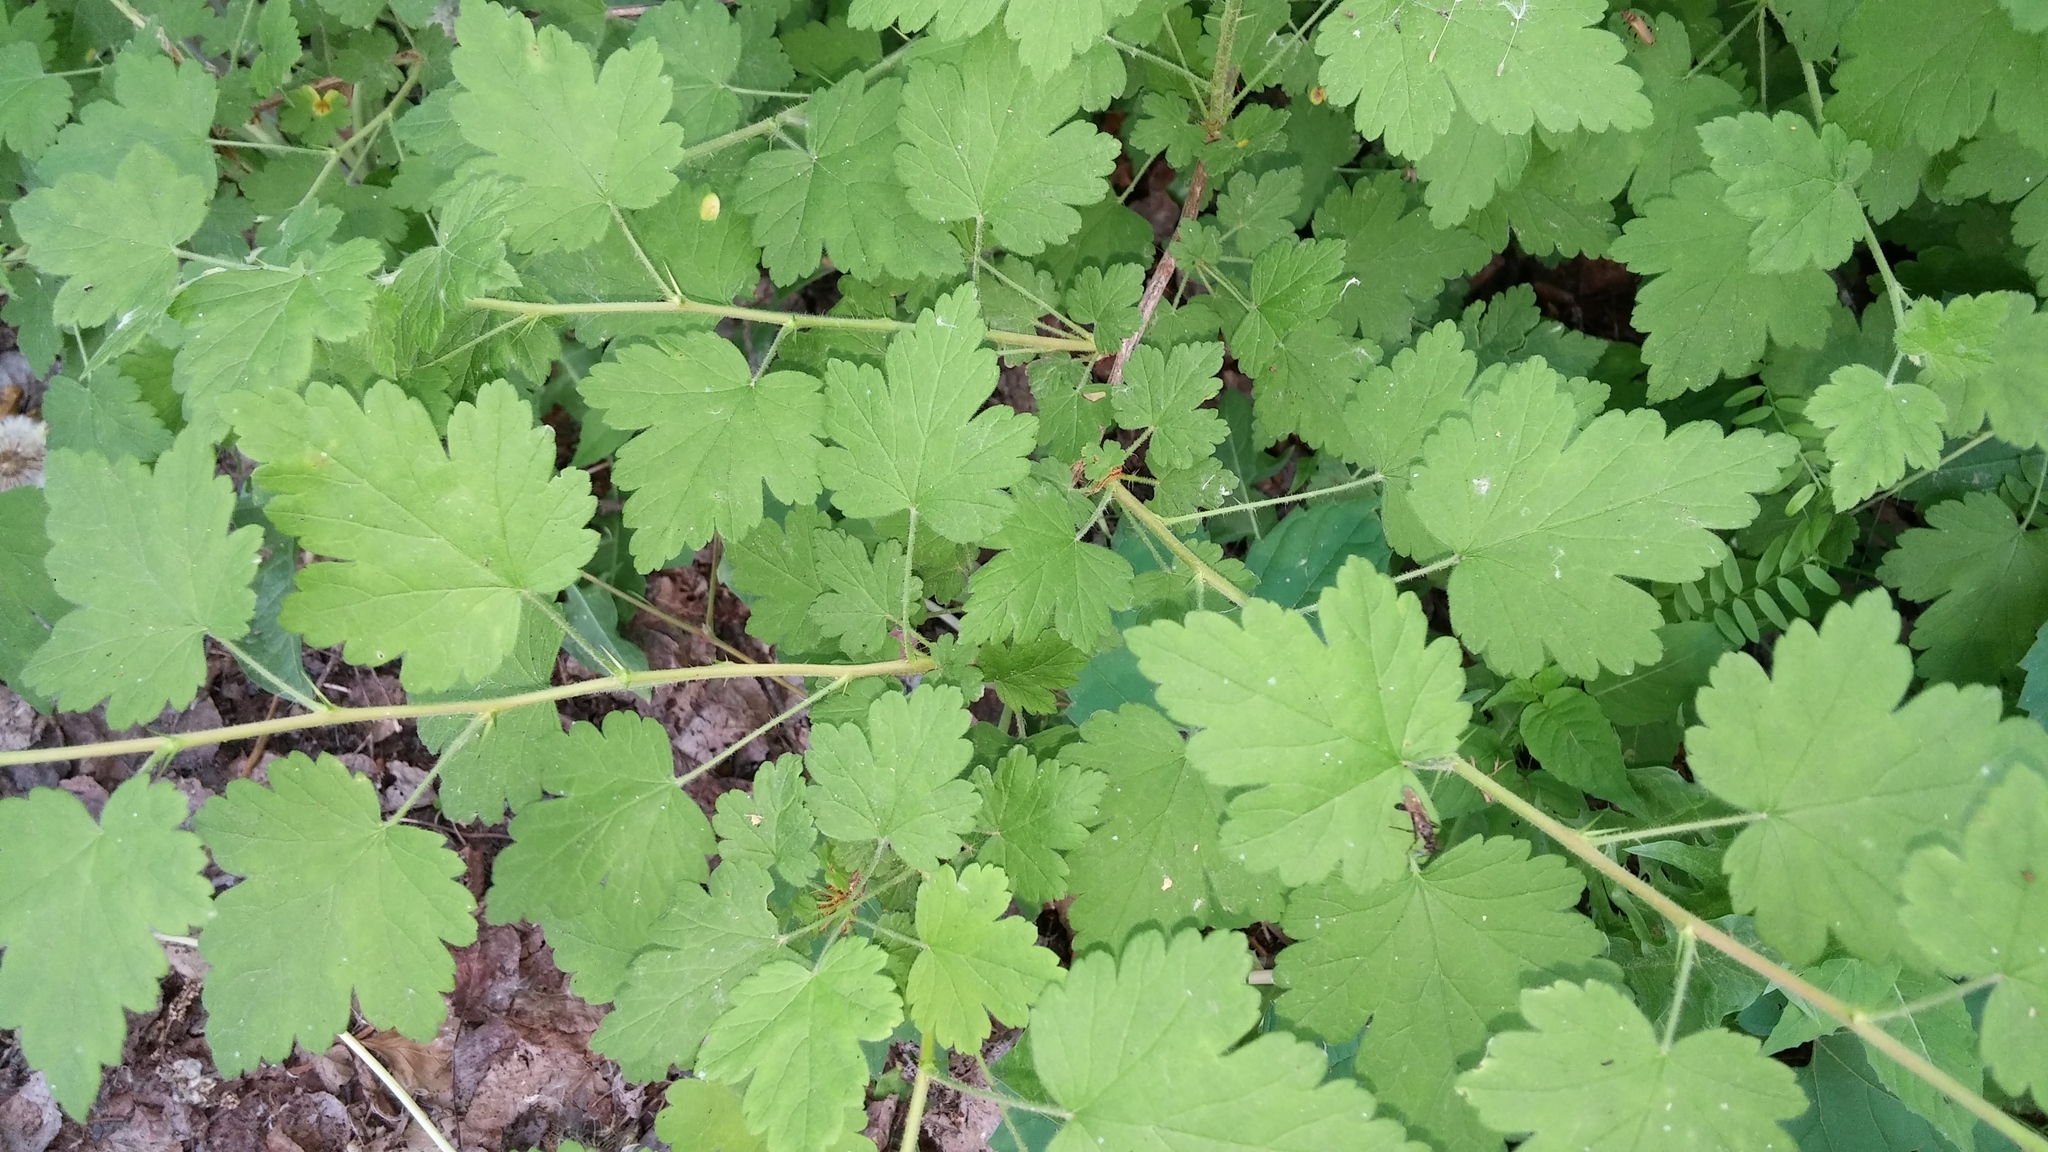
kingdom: Plantae
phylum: Tracheophyta
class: Magnoliopsida
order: Saxifragales
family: Grossulariaceae
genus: Ribes
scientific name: Ribes cynosbati
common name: American gooseberry
